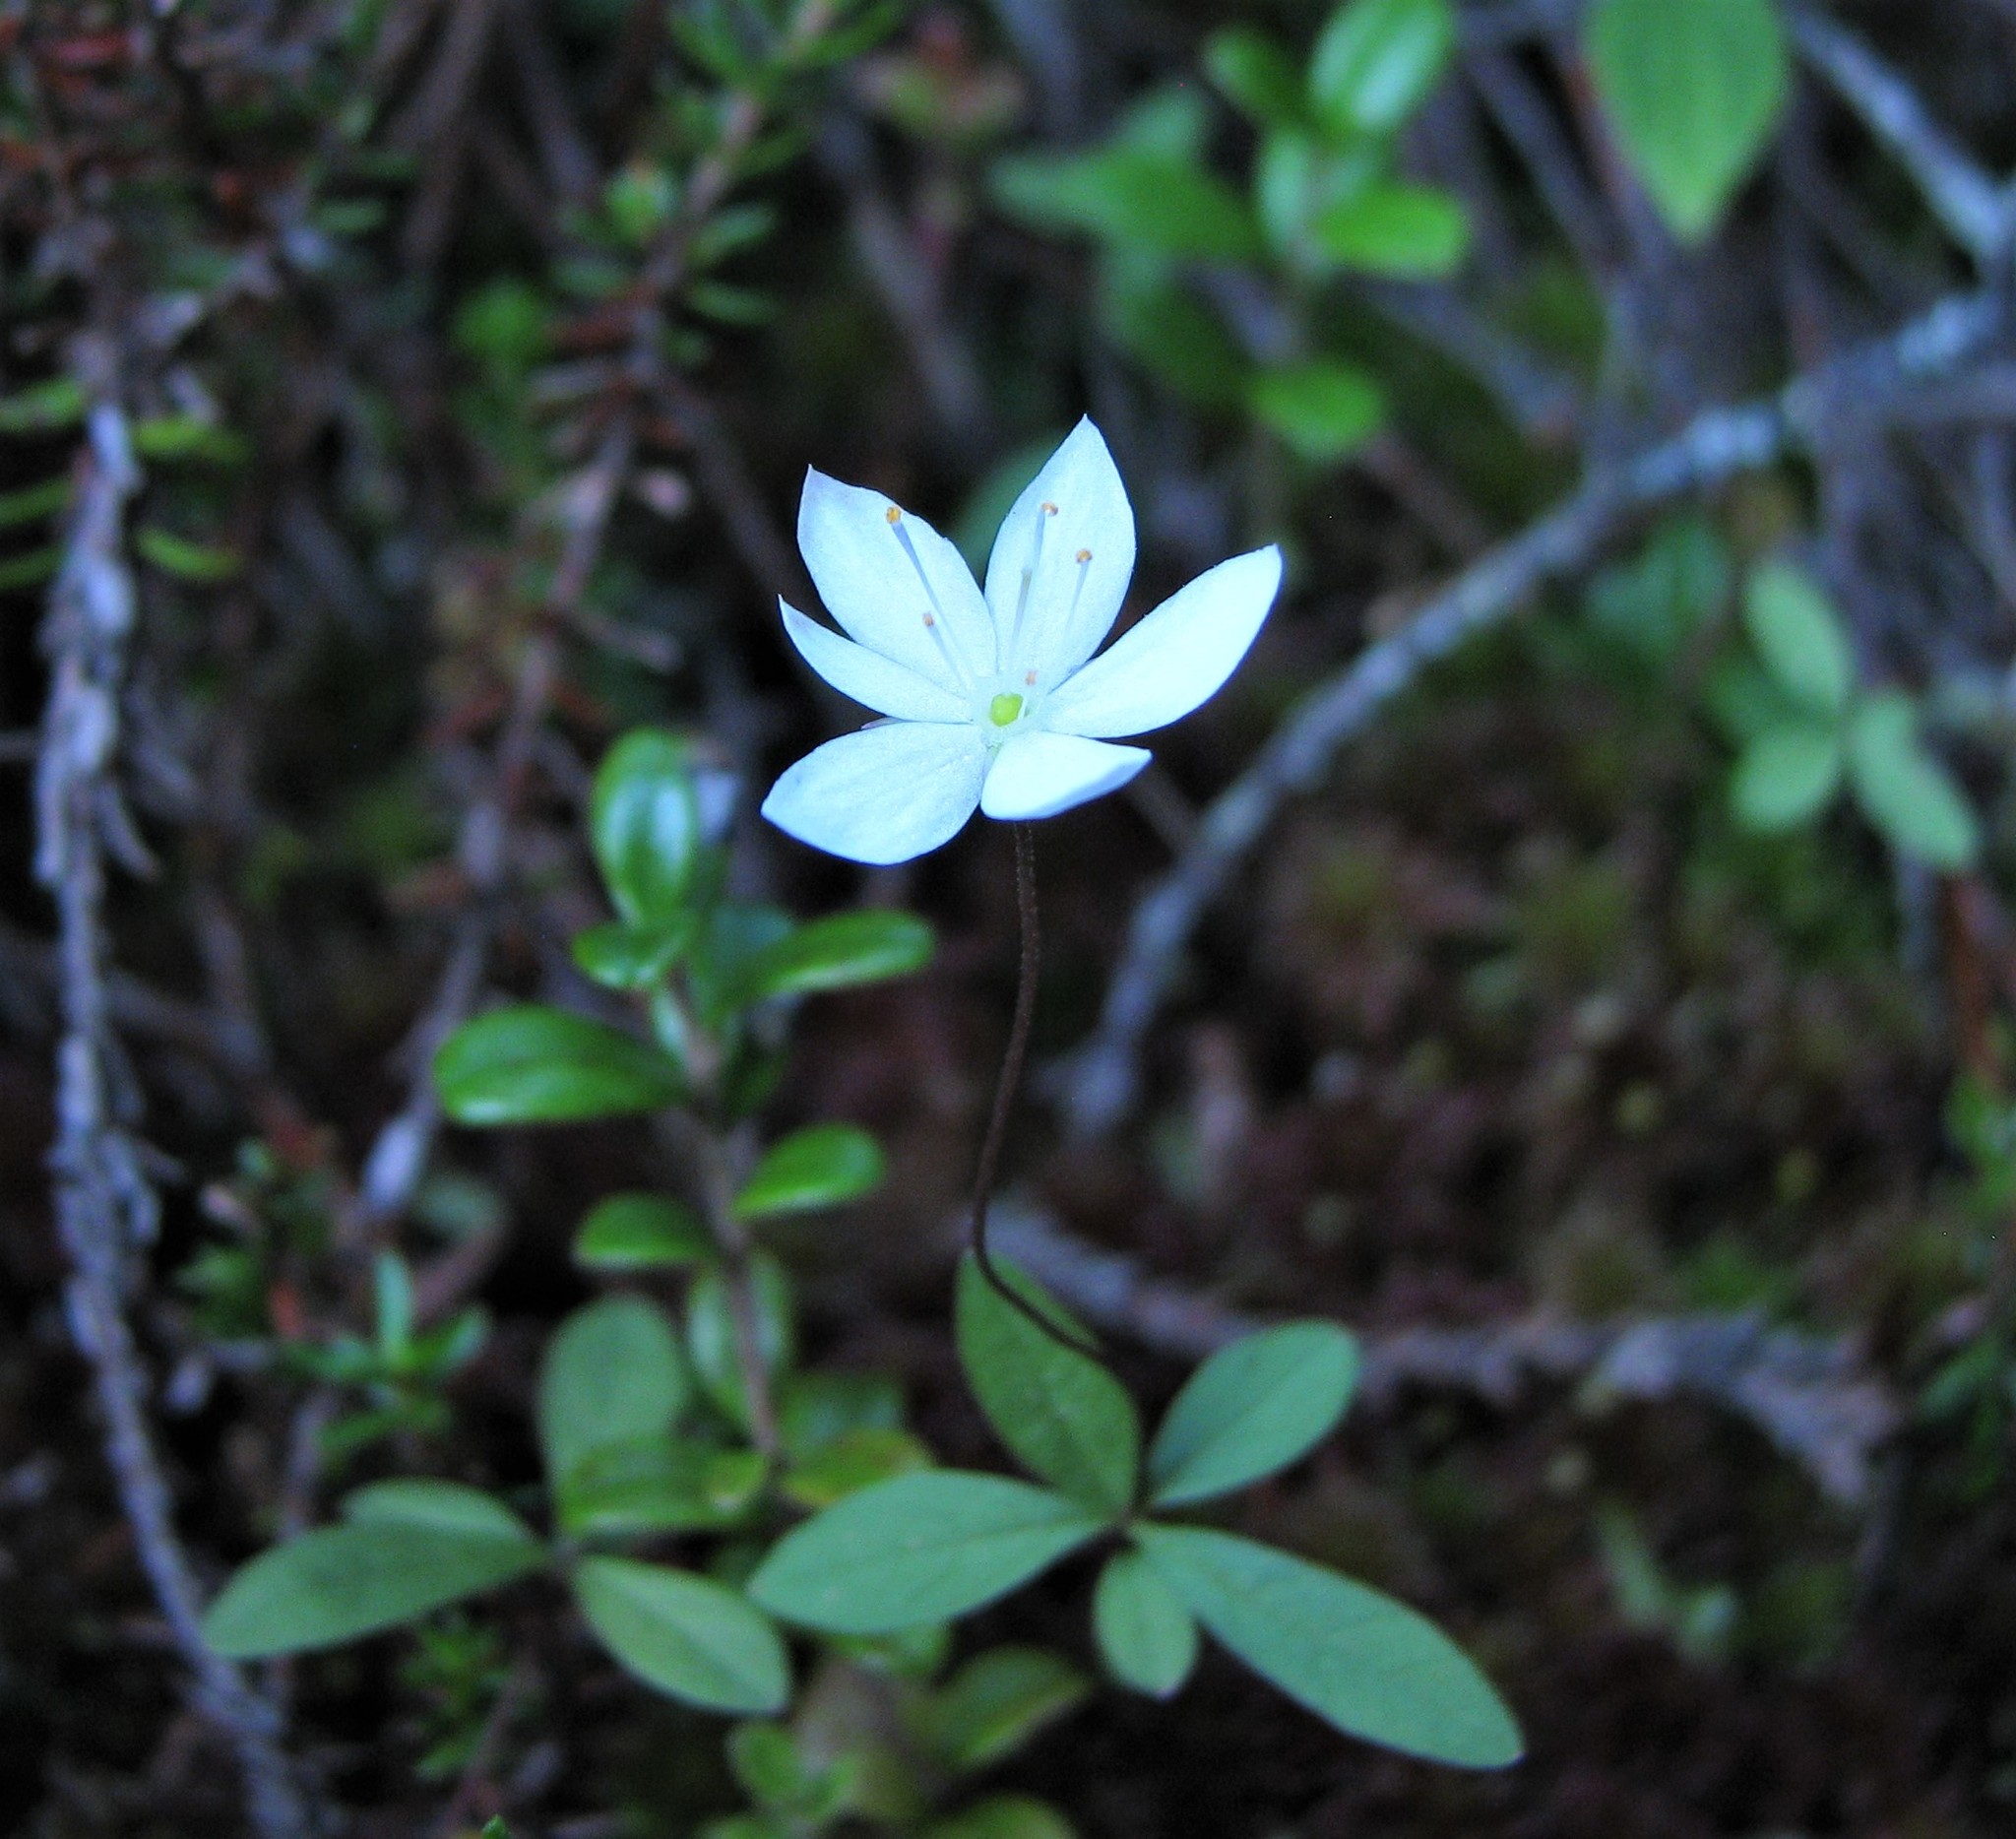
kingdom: Plantae
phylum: Tracheophyta
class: Magnoliopsida
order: Ericales
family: Primulaceae
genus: Lysimachia
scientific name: Lysimachia europaea
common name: Arctic starflower
